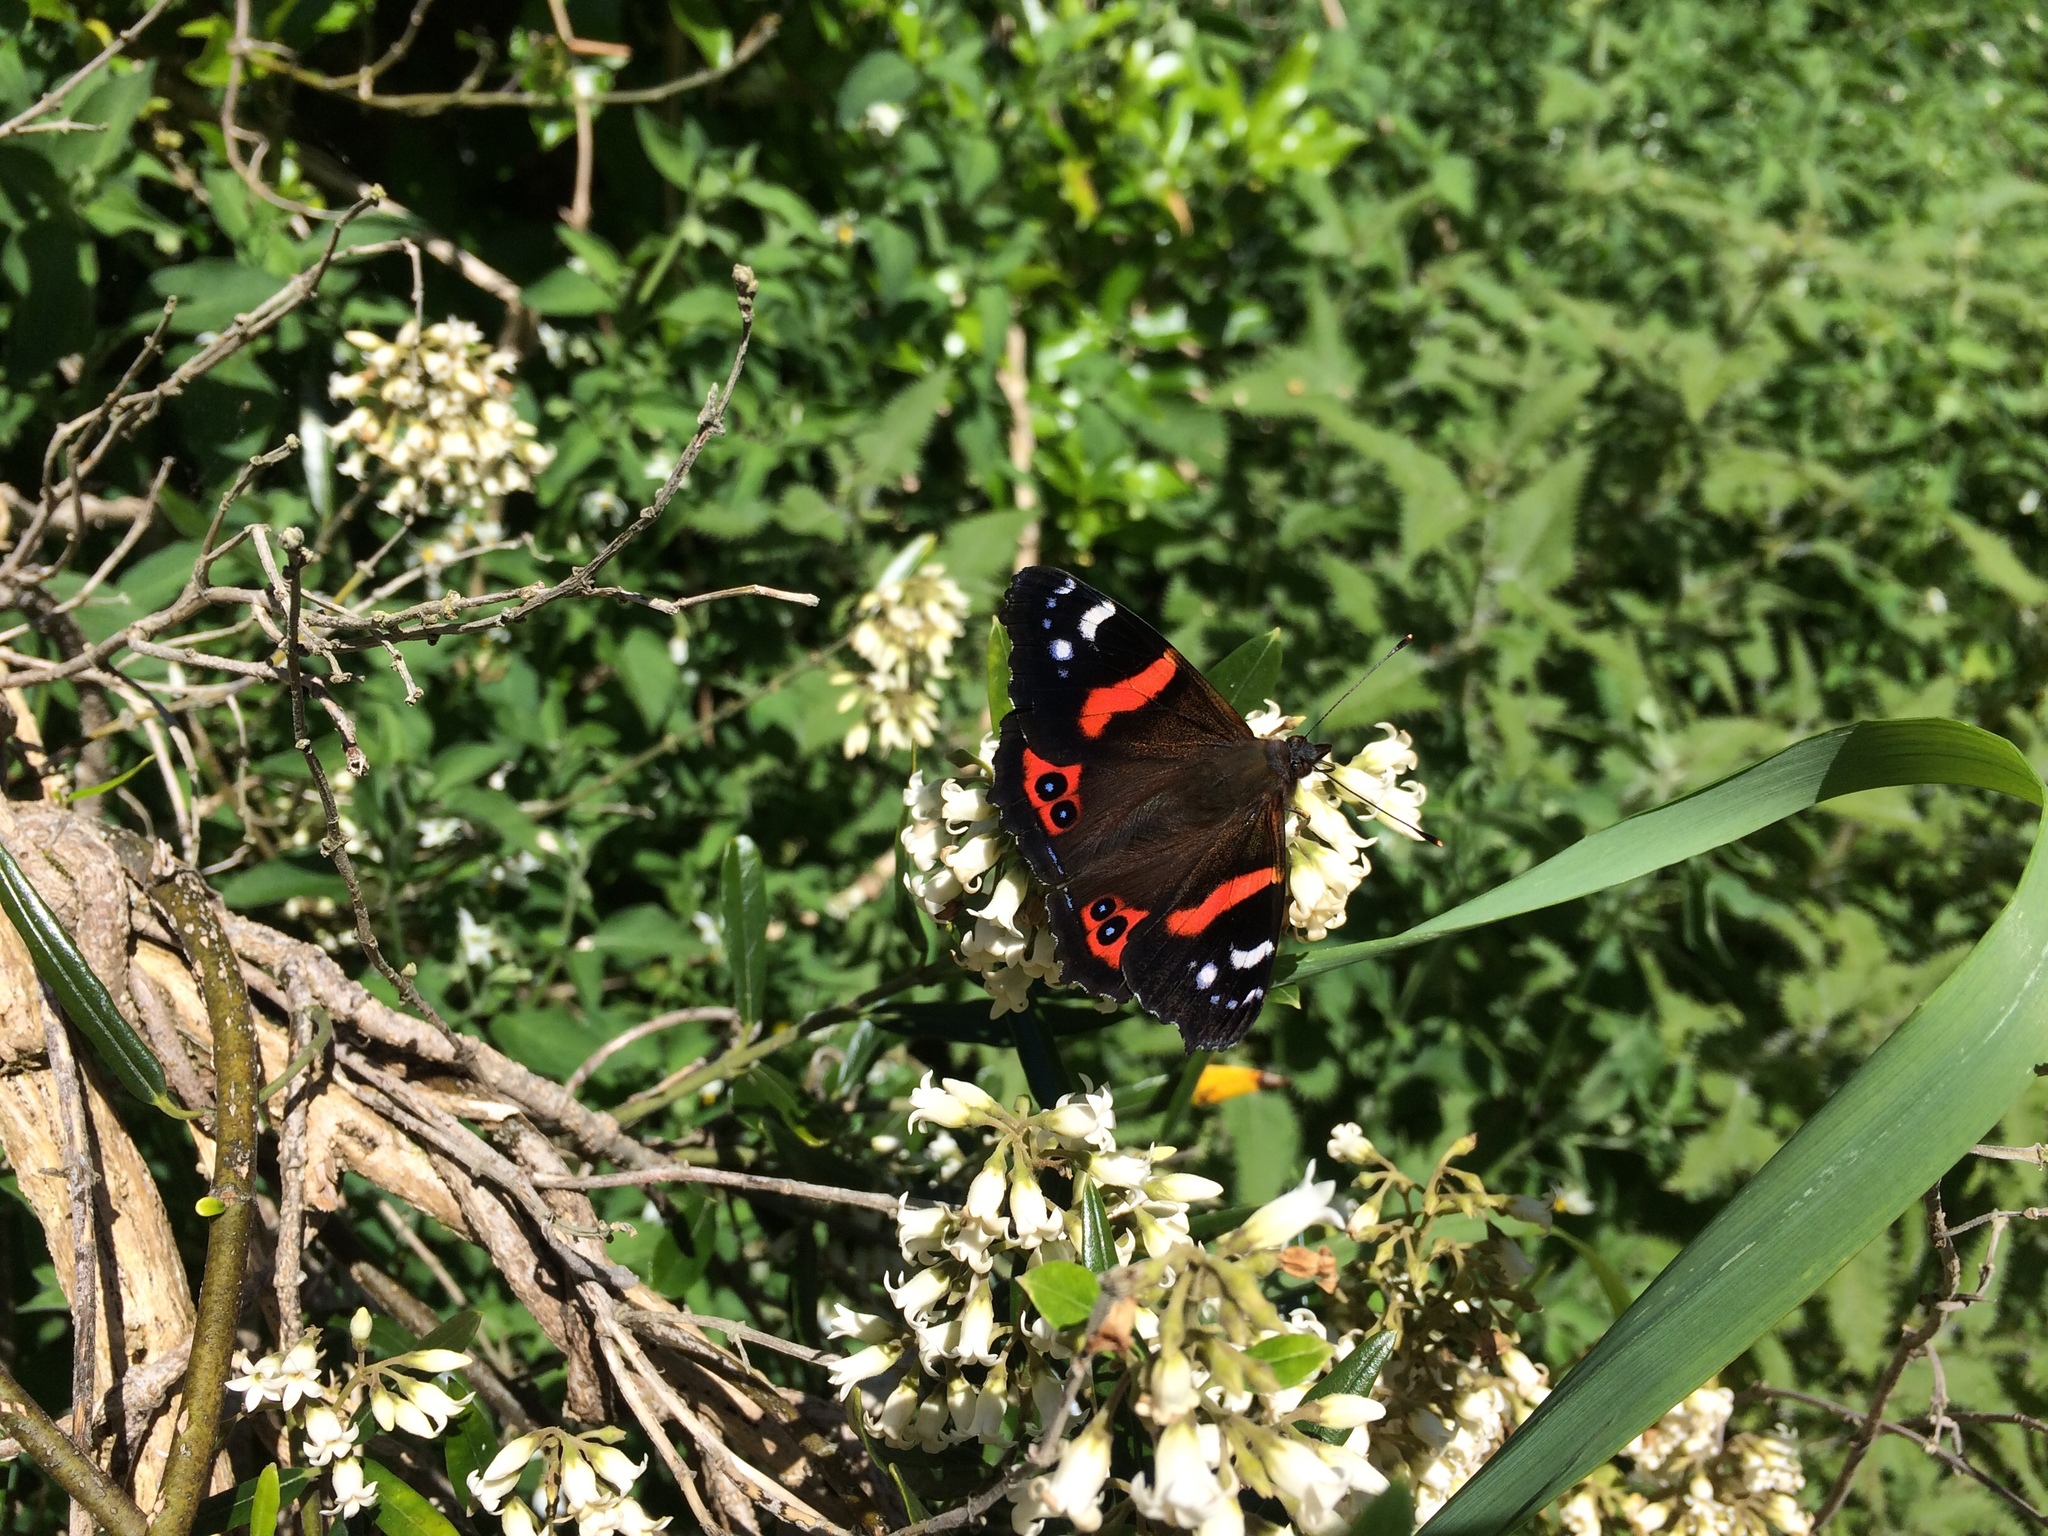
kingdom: Animalia
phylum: Arthropoda
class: Insecta
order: Lepidoptera
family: Nymphalidae
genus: Vanessa
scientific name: Vanessa gonerilla
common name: New zealand red admiral
